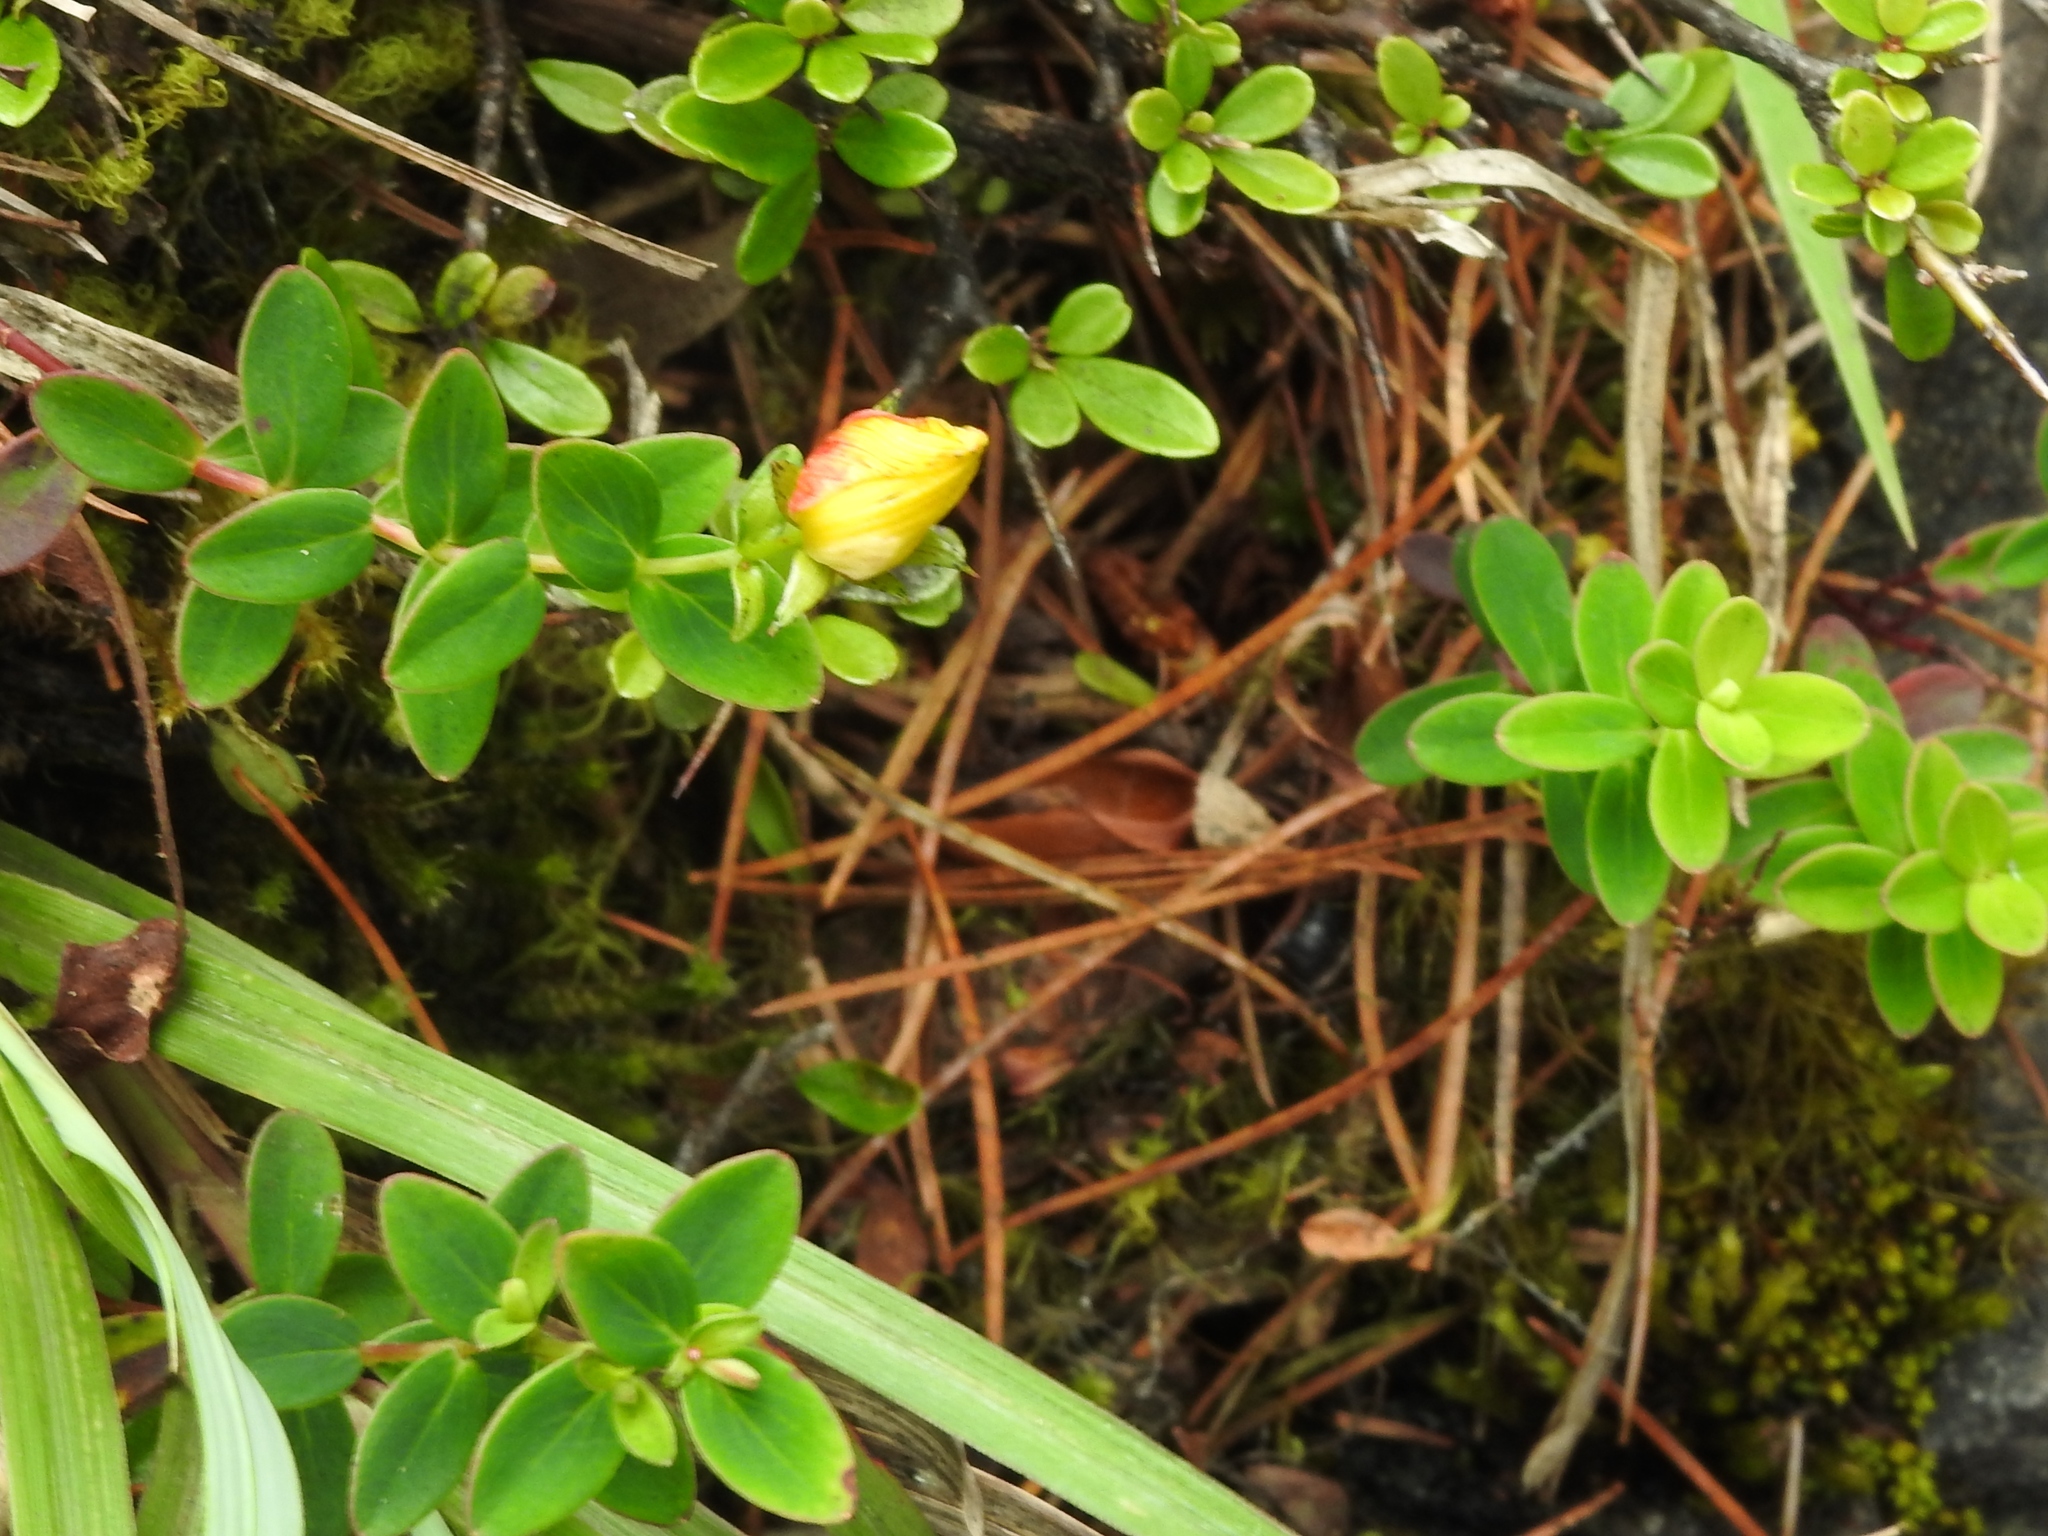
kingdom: Plantae
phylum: Tracheophyta
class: Magnoliopsida
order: Malpighiales
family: Hypericaceae
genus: Hypericum
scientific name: Hypericum nagasawae
